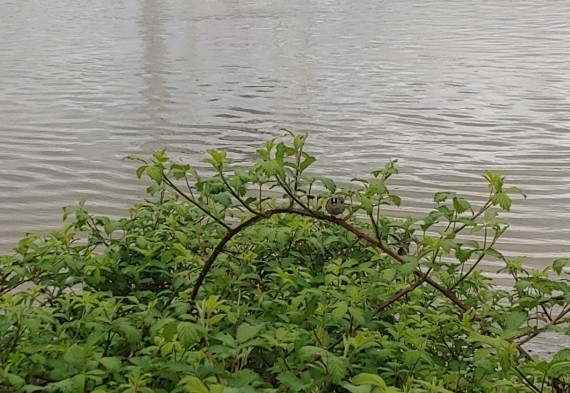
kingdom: Animalia
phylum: Chordata
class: Aves
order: Passeriformes
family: Passerellidae
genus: Zonotrichia
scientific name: Zonotrichia leucophrys
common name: White-crowned sparrow
